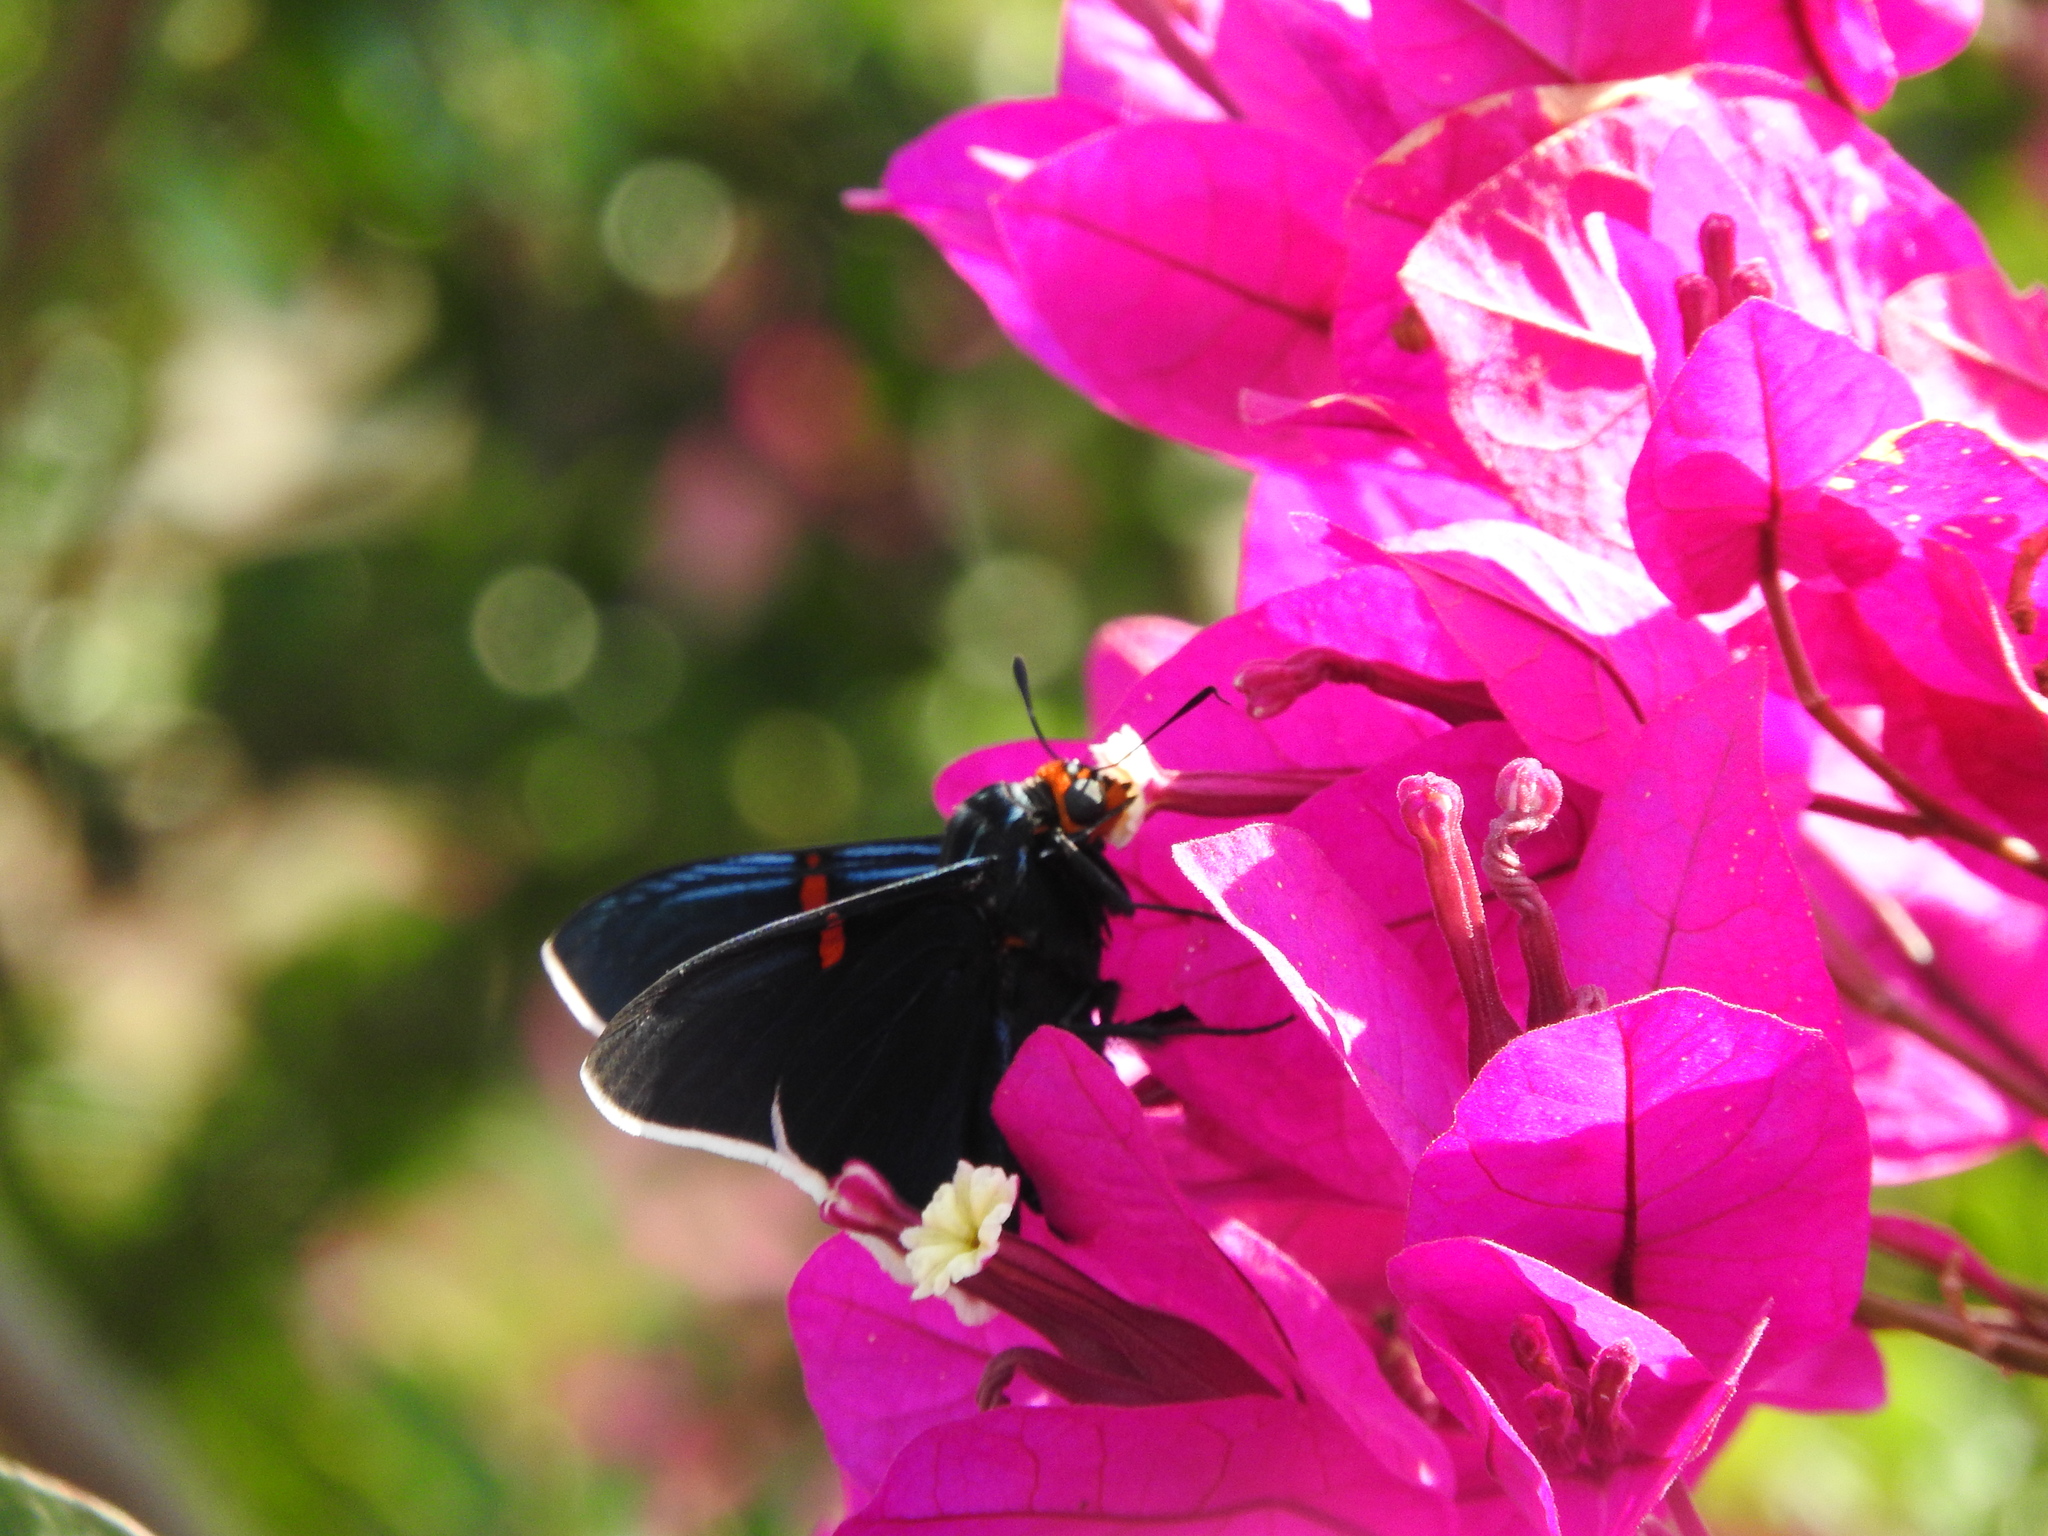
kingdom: Animalia
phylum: Arthropoda
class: Insecta
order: Lepidoptera
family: Hesperiidae
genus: Phocides
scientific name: Phocides lilea
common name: Guava skipper
